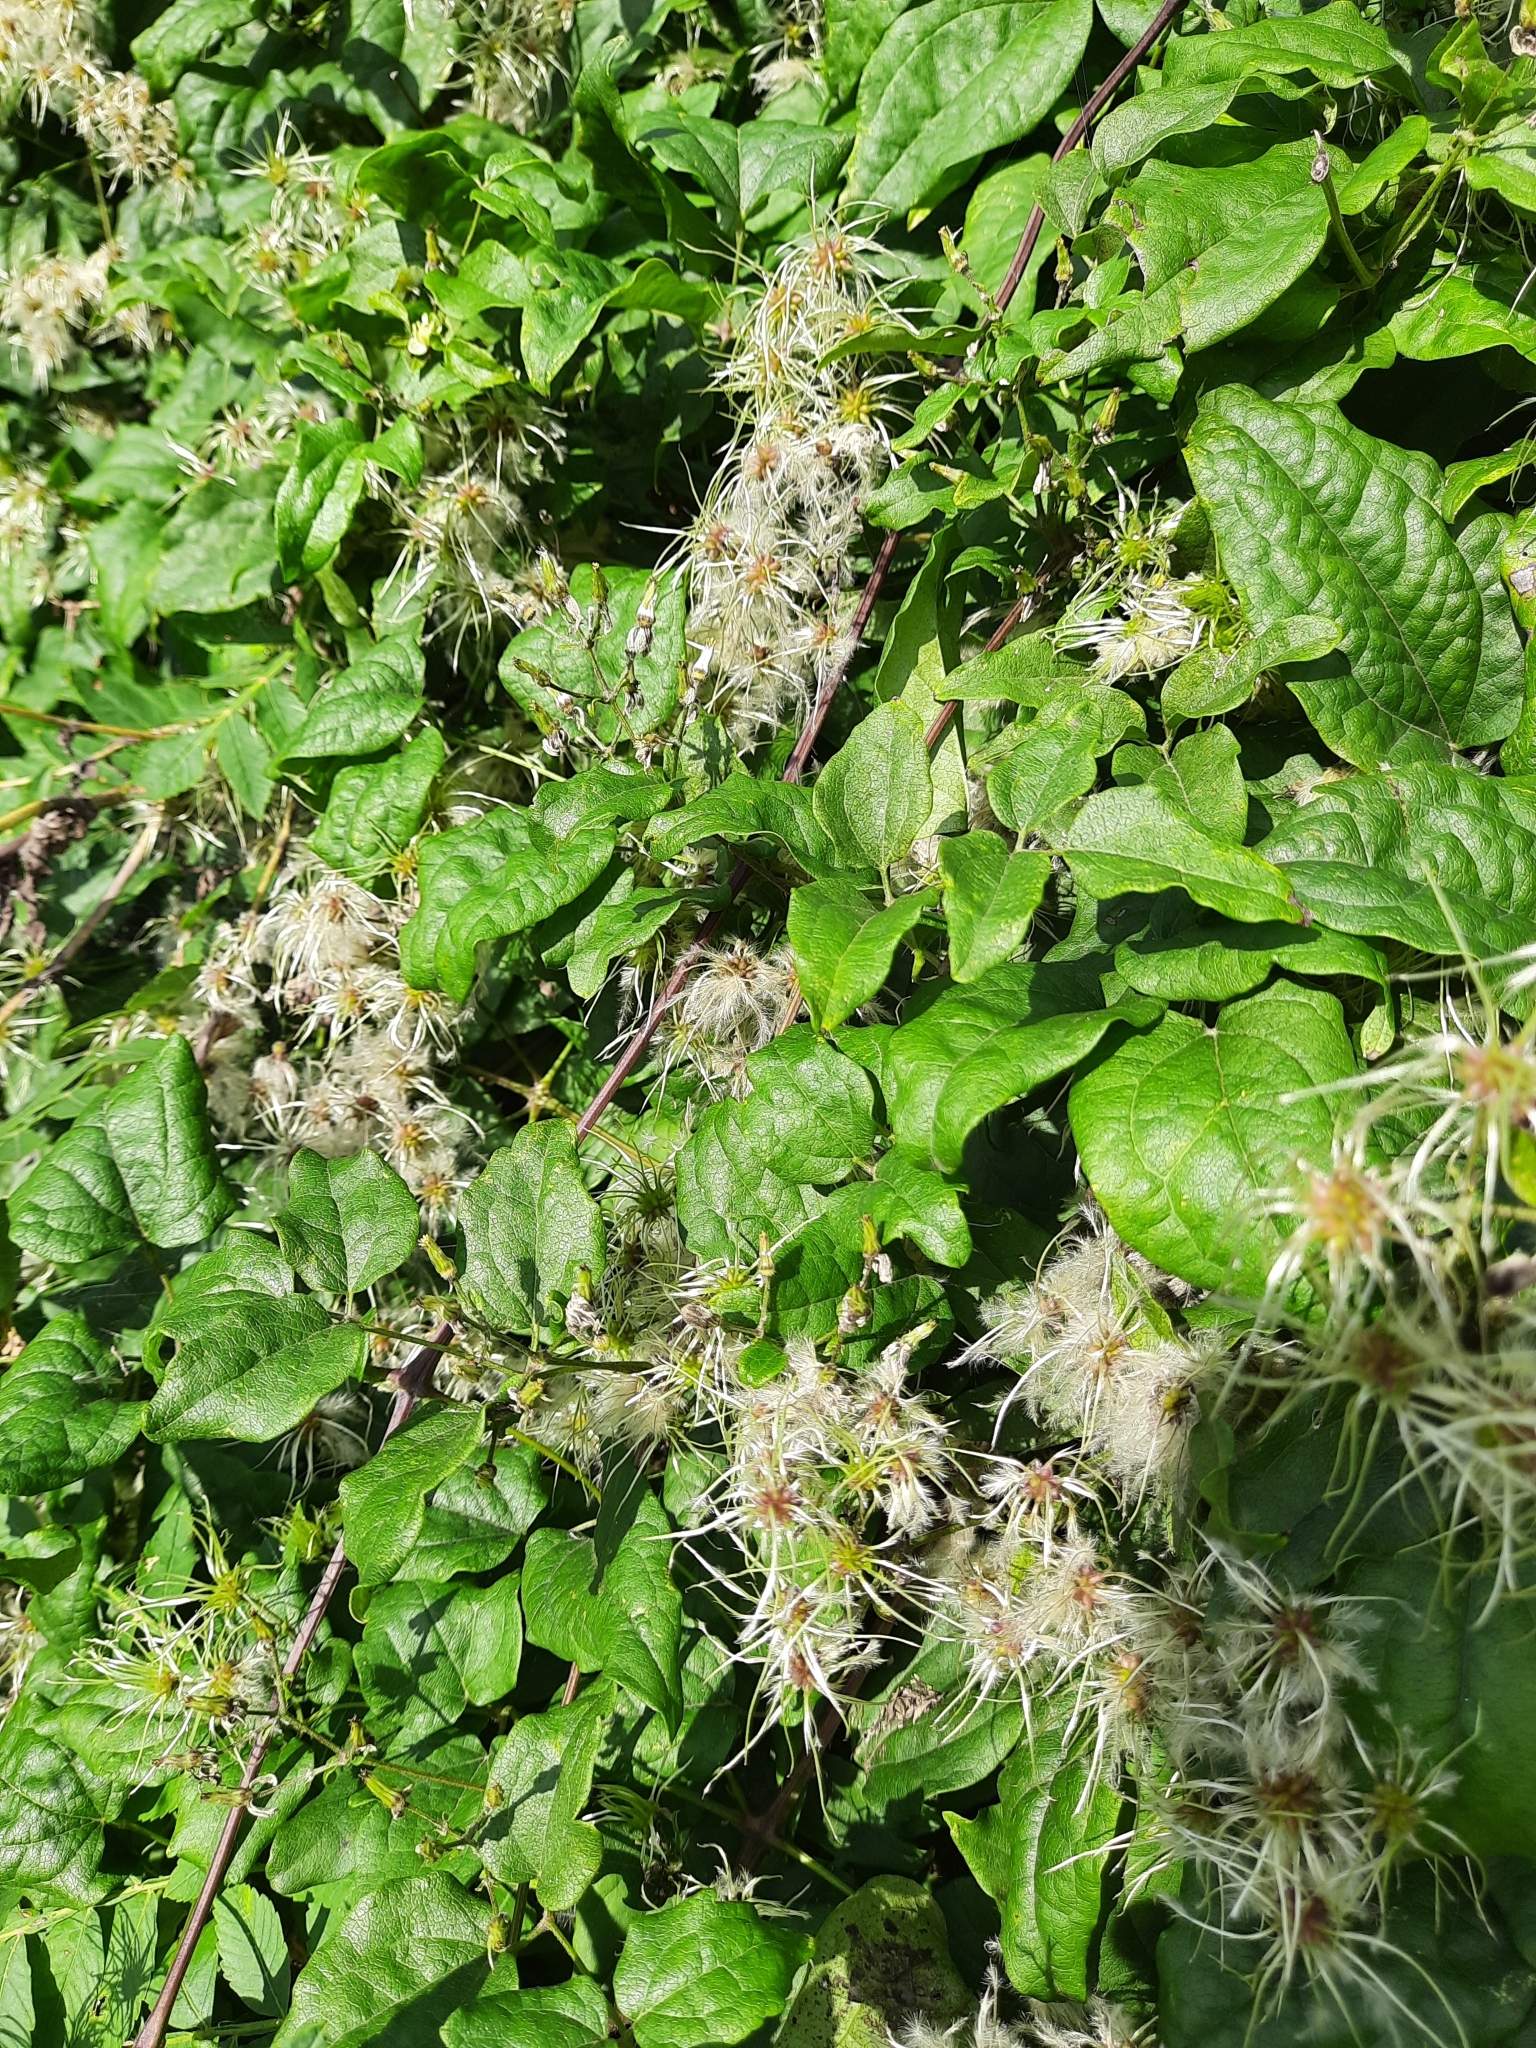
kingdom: Plantae
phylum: Tracheophyta
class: Magnoliopsida
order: Ranunculales
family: Ranunculaceae
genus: Clematis
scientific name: Clematis vitalba
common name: Evergreen clematis
